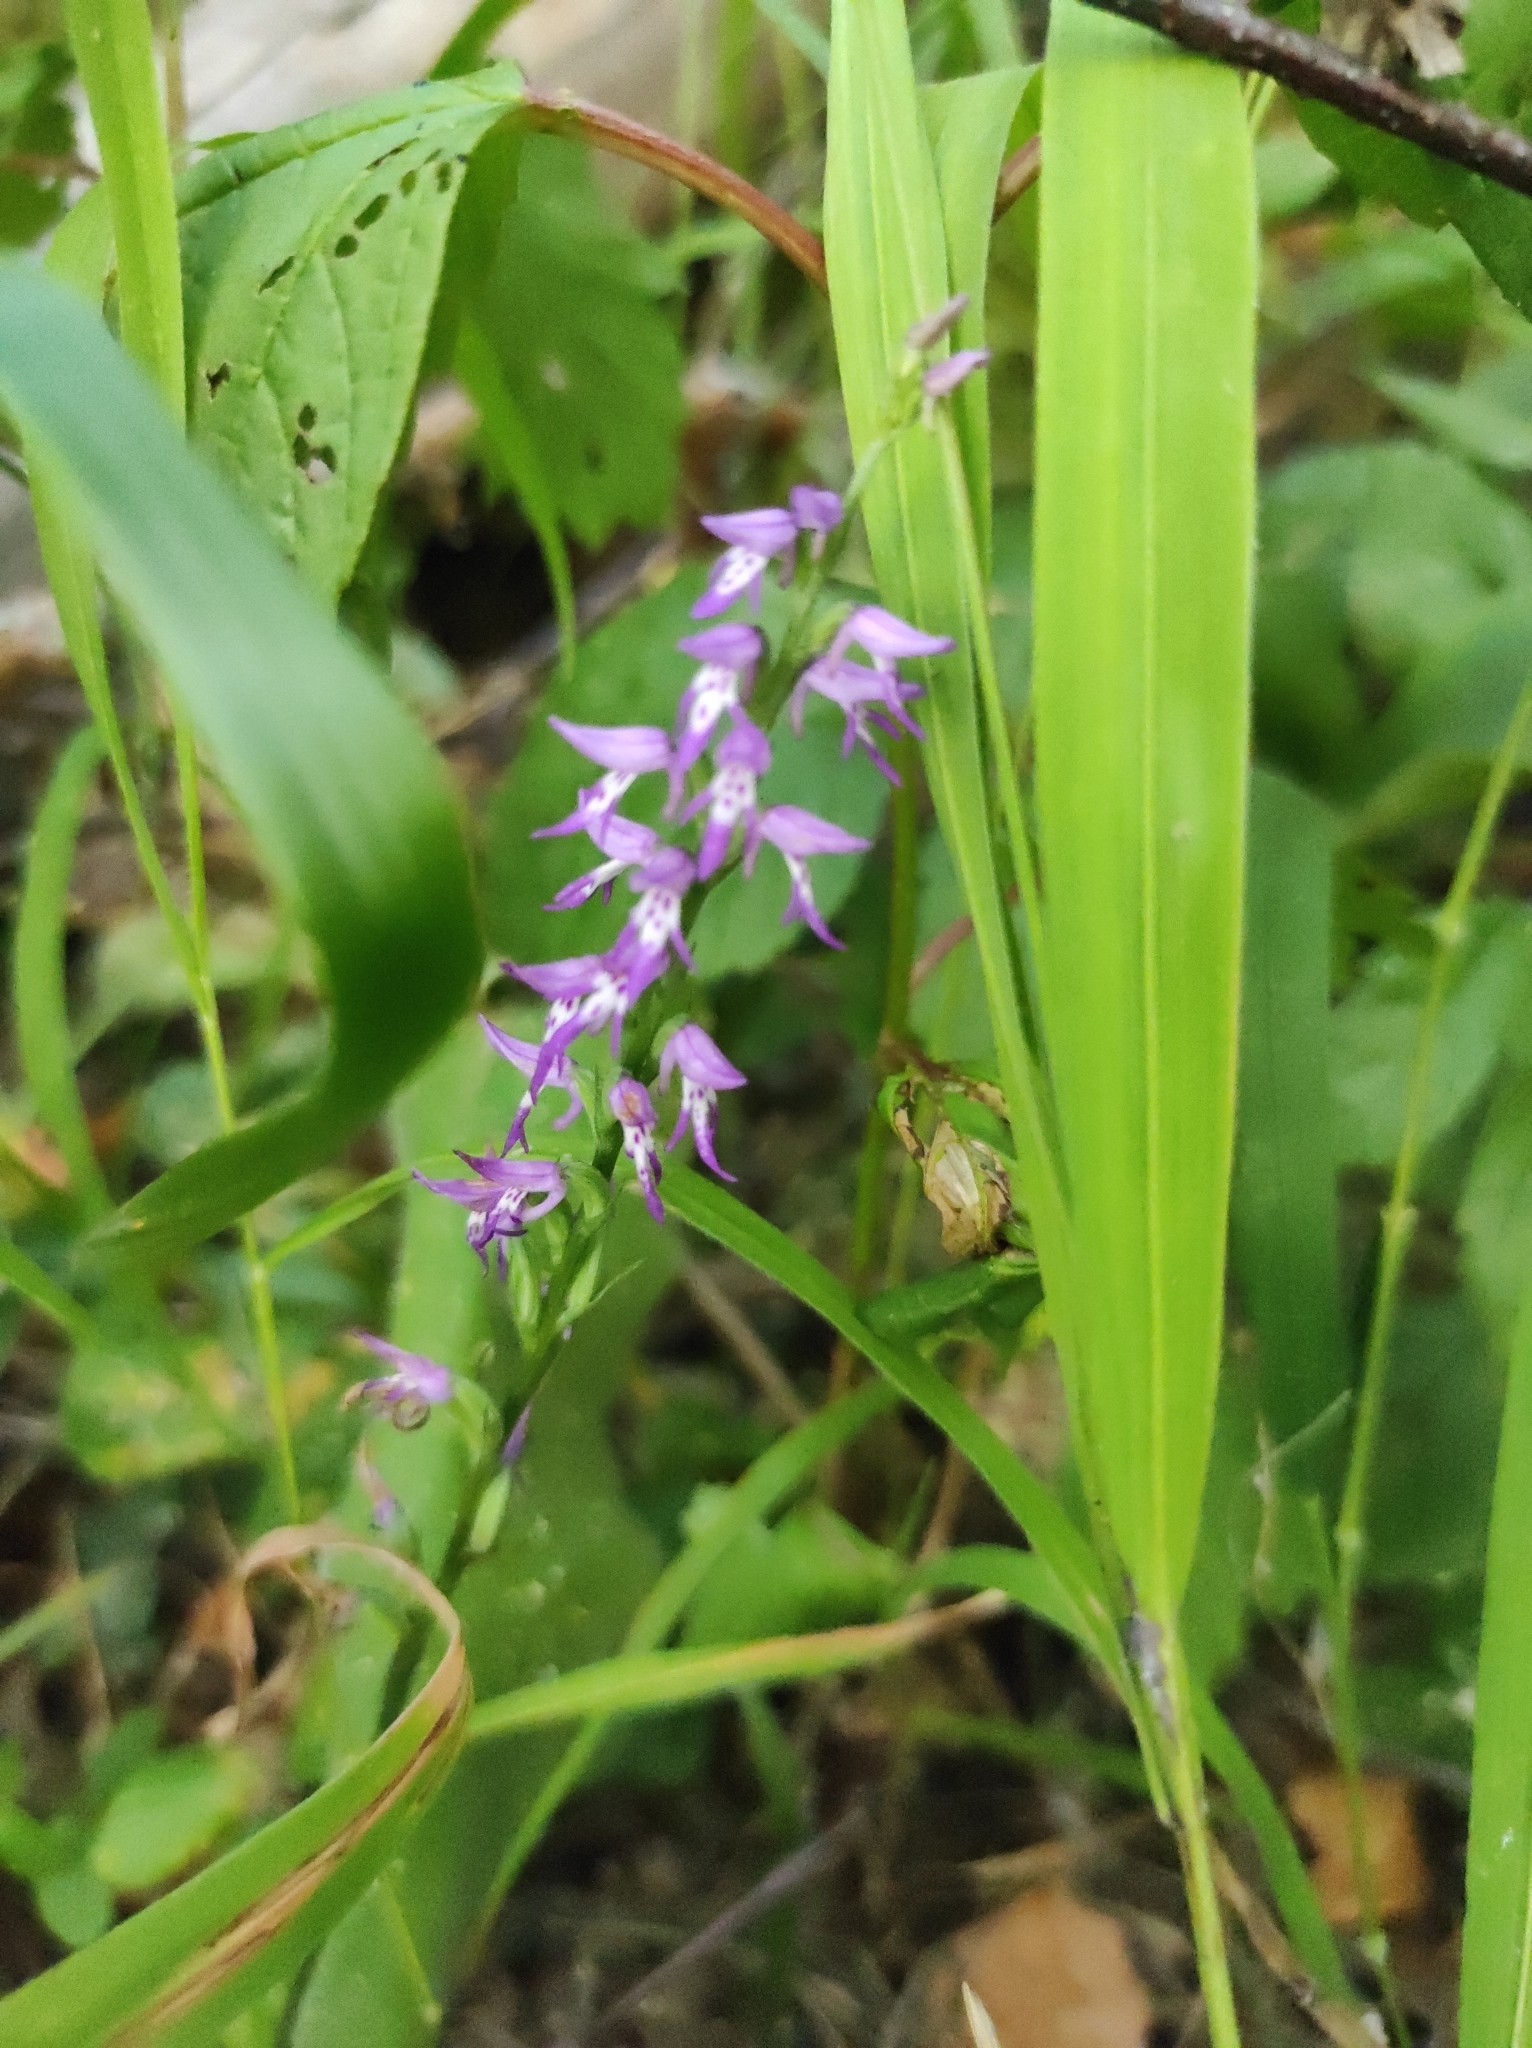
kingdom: Plantae
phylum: Tracheophyta
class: Liliopsida
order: Asparagales
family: Orchidaceae
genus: Hemipilia
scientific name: Hemipilia cucullata
